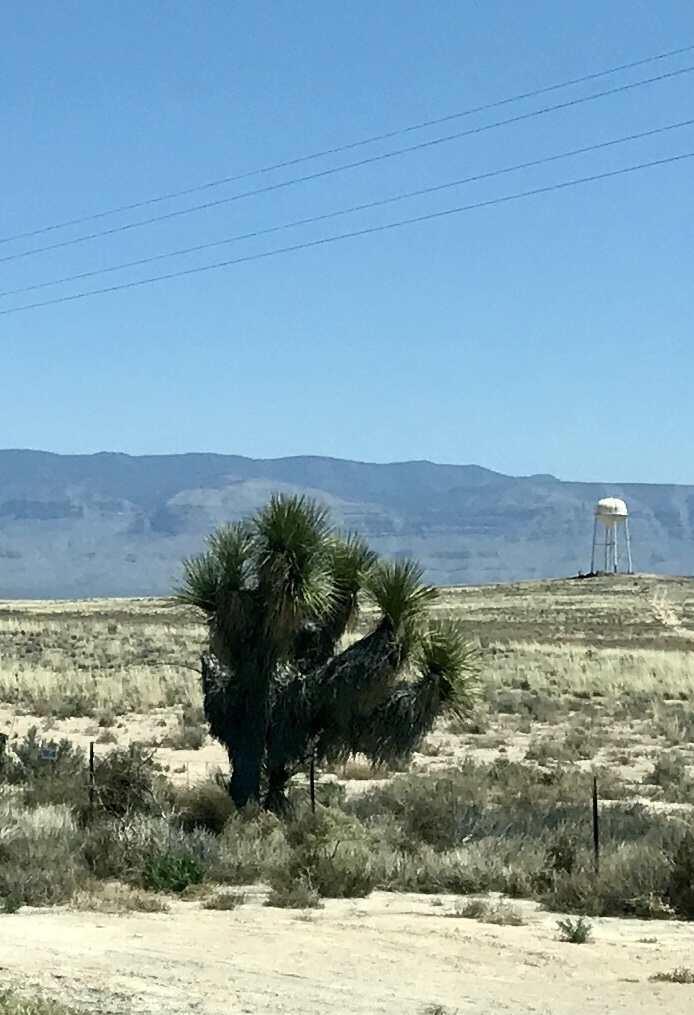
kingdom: Plantae
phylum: Tracheophyta
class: Liliopsida
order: Asparagales
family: Asparagaceae
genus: Yucca
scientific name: Yucca elata
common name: Palmella
